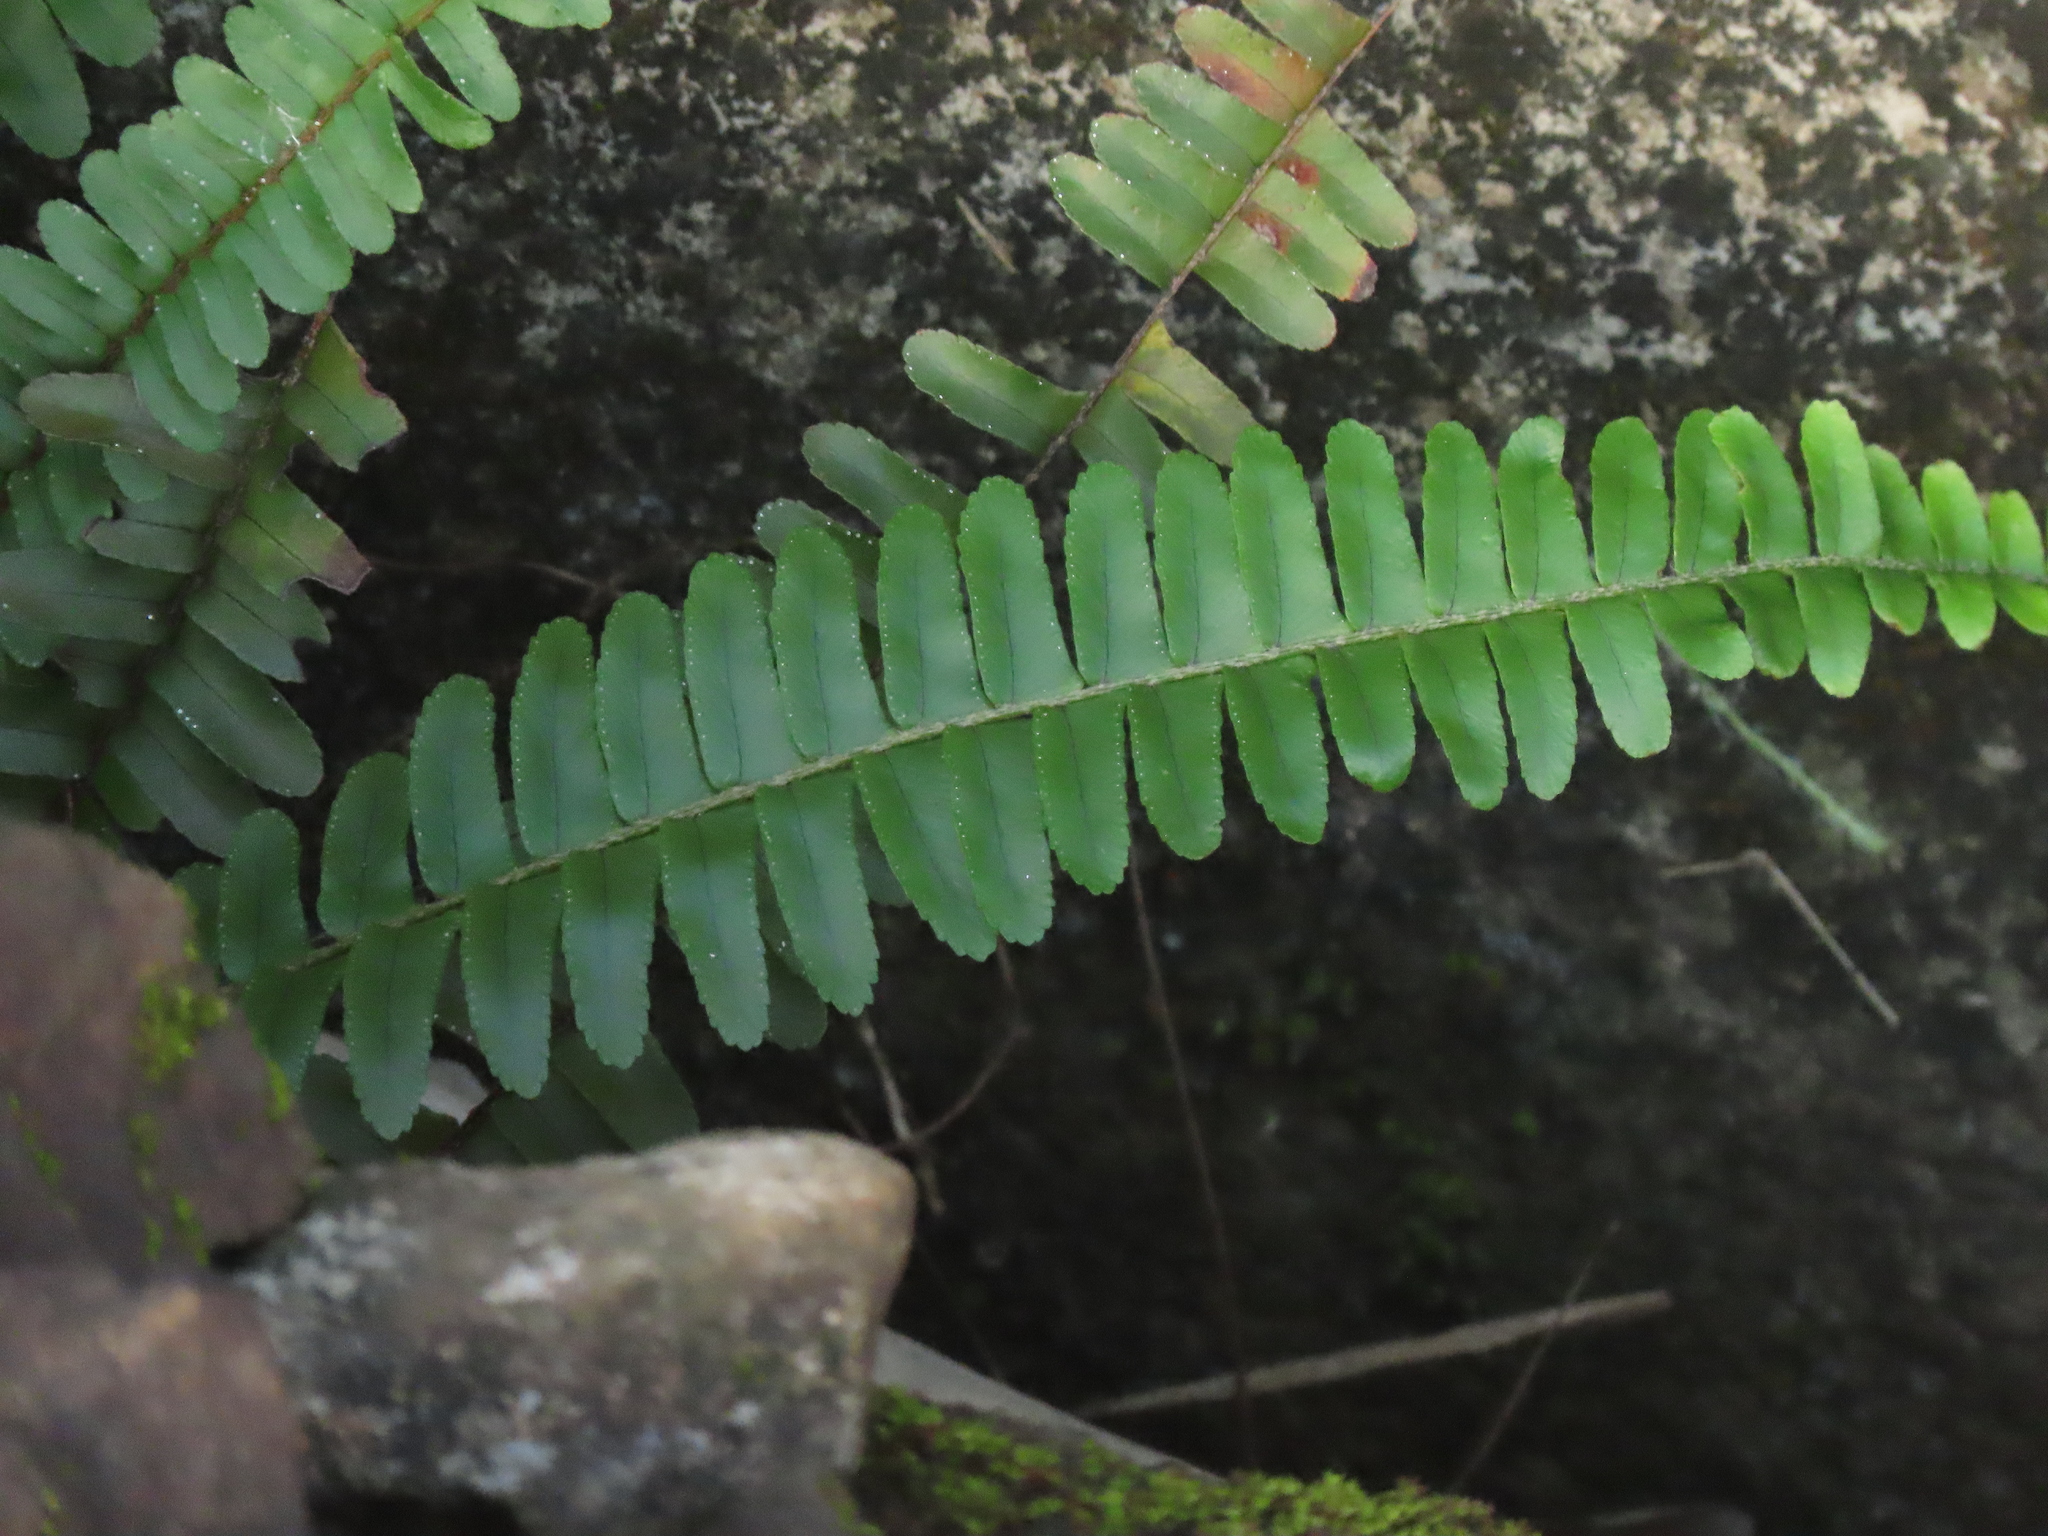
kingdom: Plantae
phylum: Tracheophyta
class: Polypodiopsida
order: Polypodiales
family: Nephrolepidaceae
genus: Nephrolepis
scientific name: Nephrolepis cordifolia
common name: Narrow swordfern
